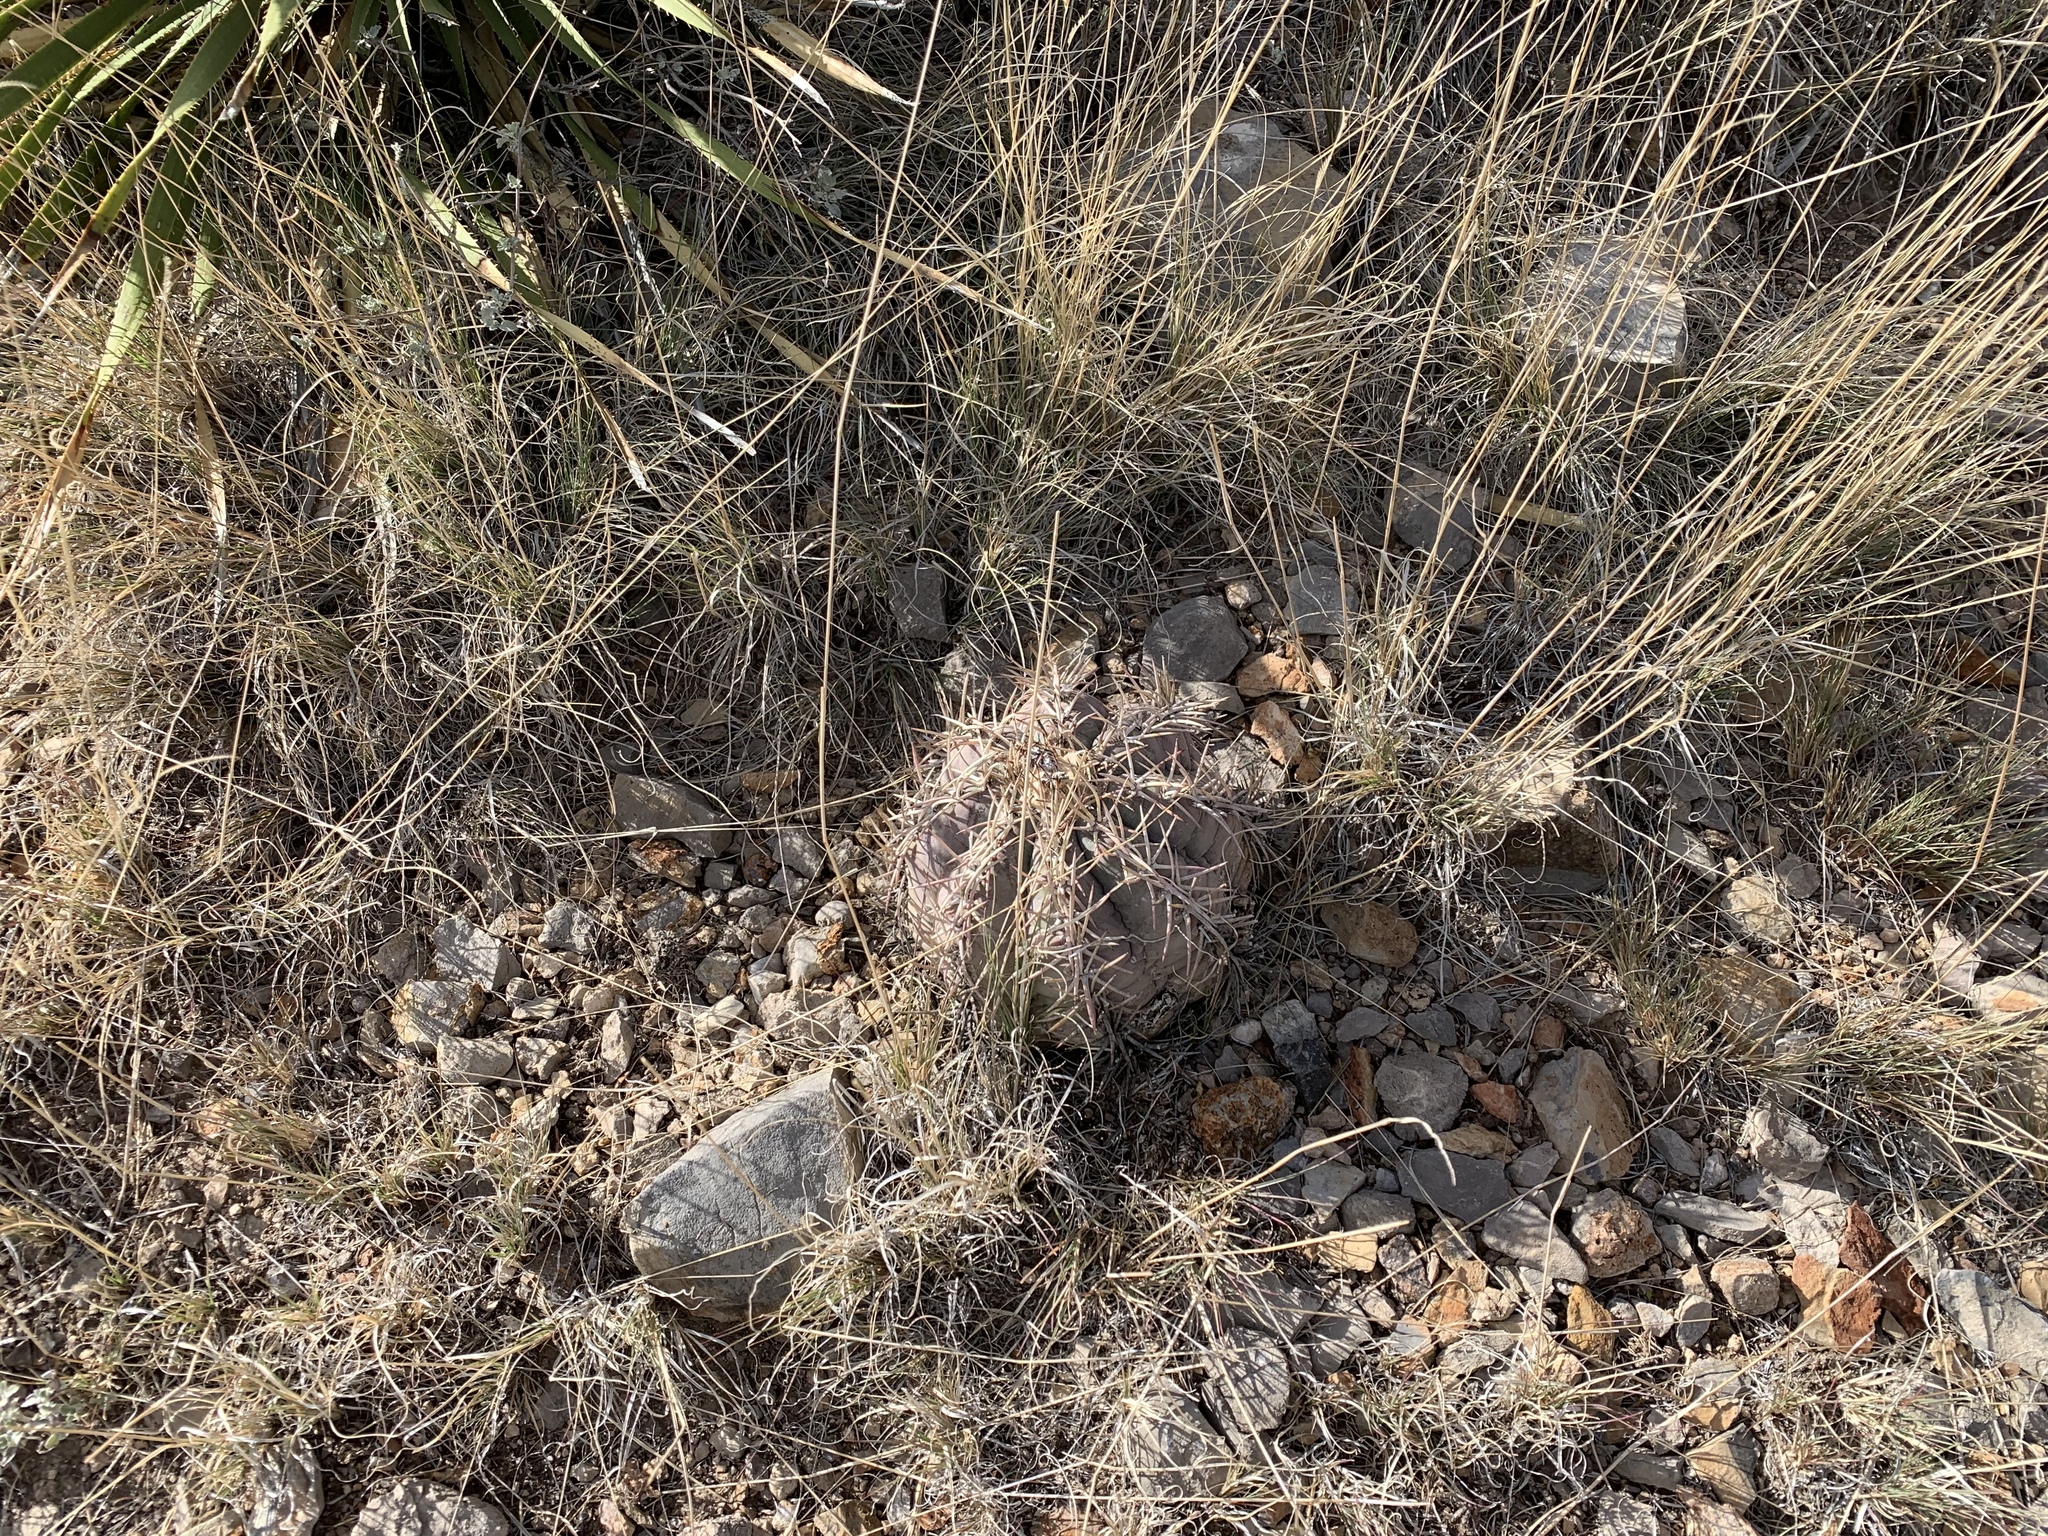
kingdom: Plantae
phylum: Tracheophyta
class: Magnoliopsida
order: Caryophyllales
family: Cactaceae
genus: Echinocactus
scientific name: Echinocactus horizonthalonius
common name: Devilshead
